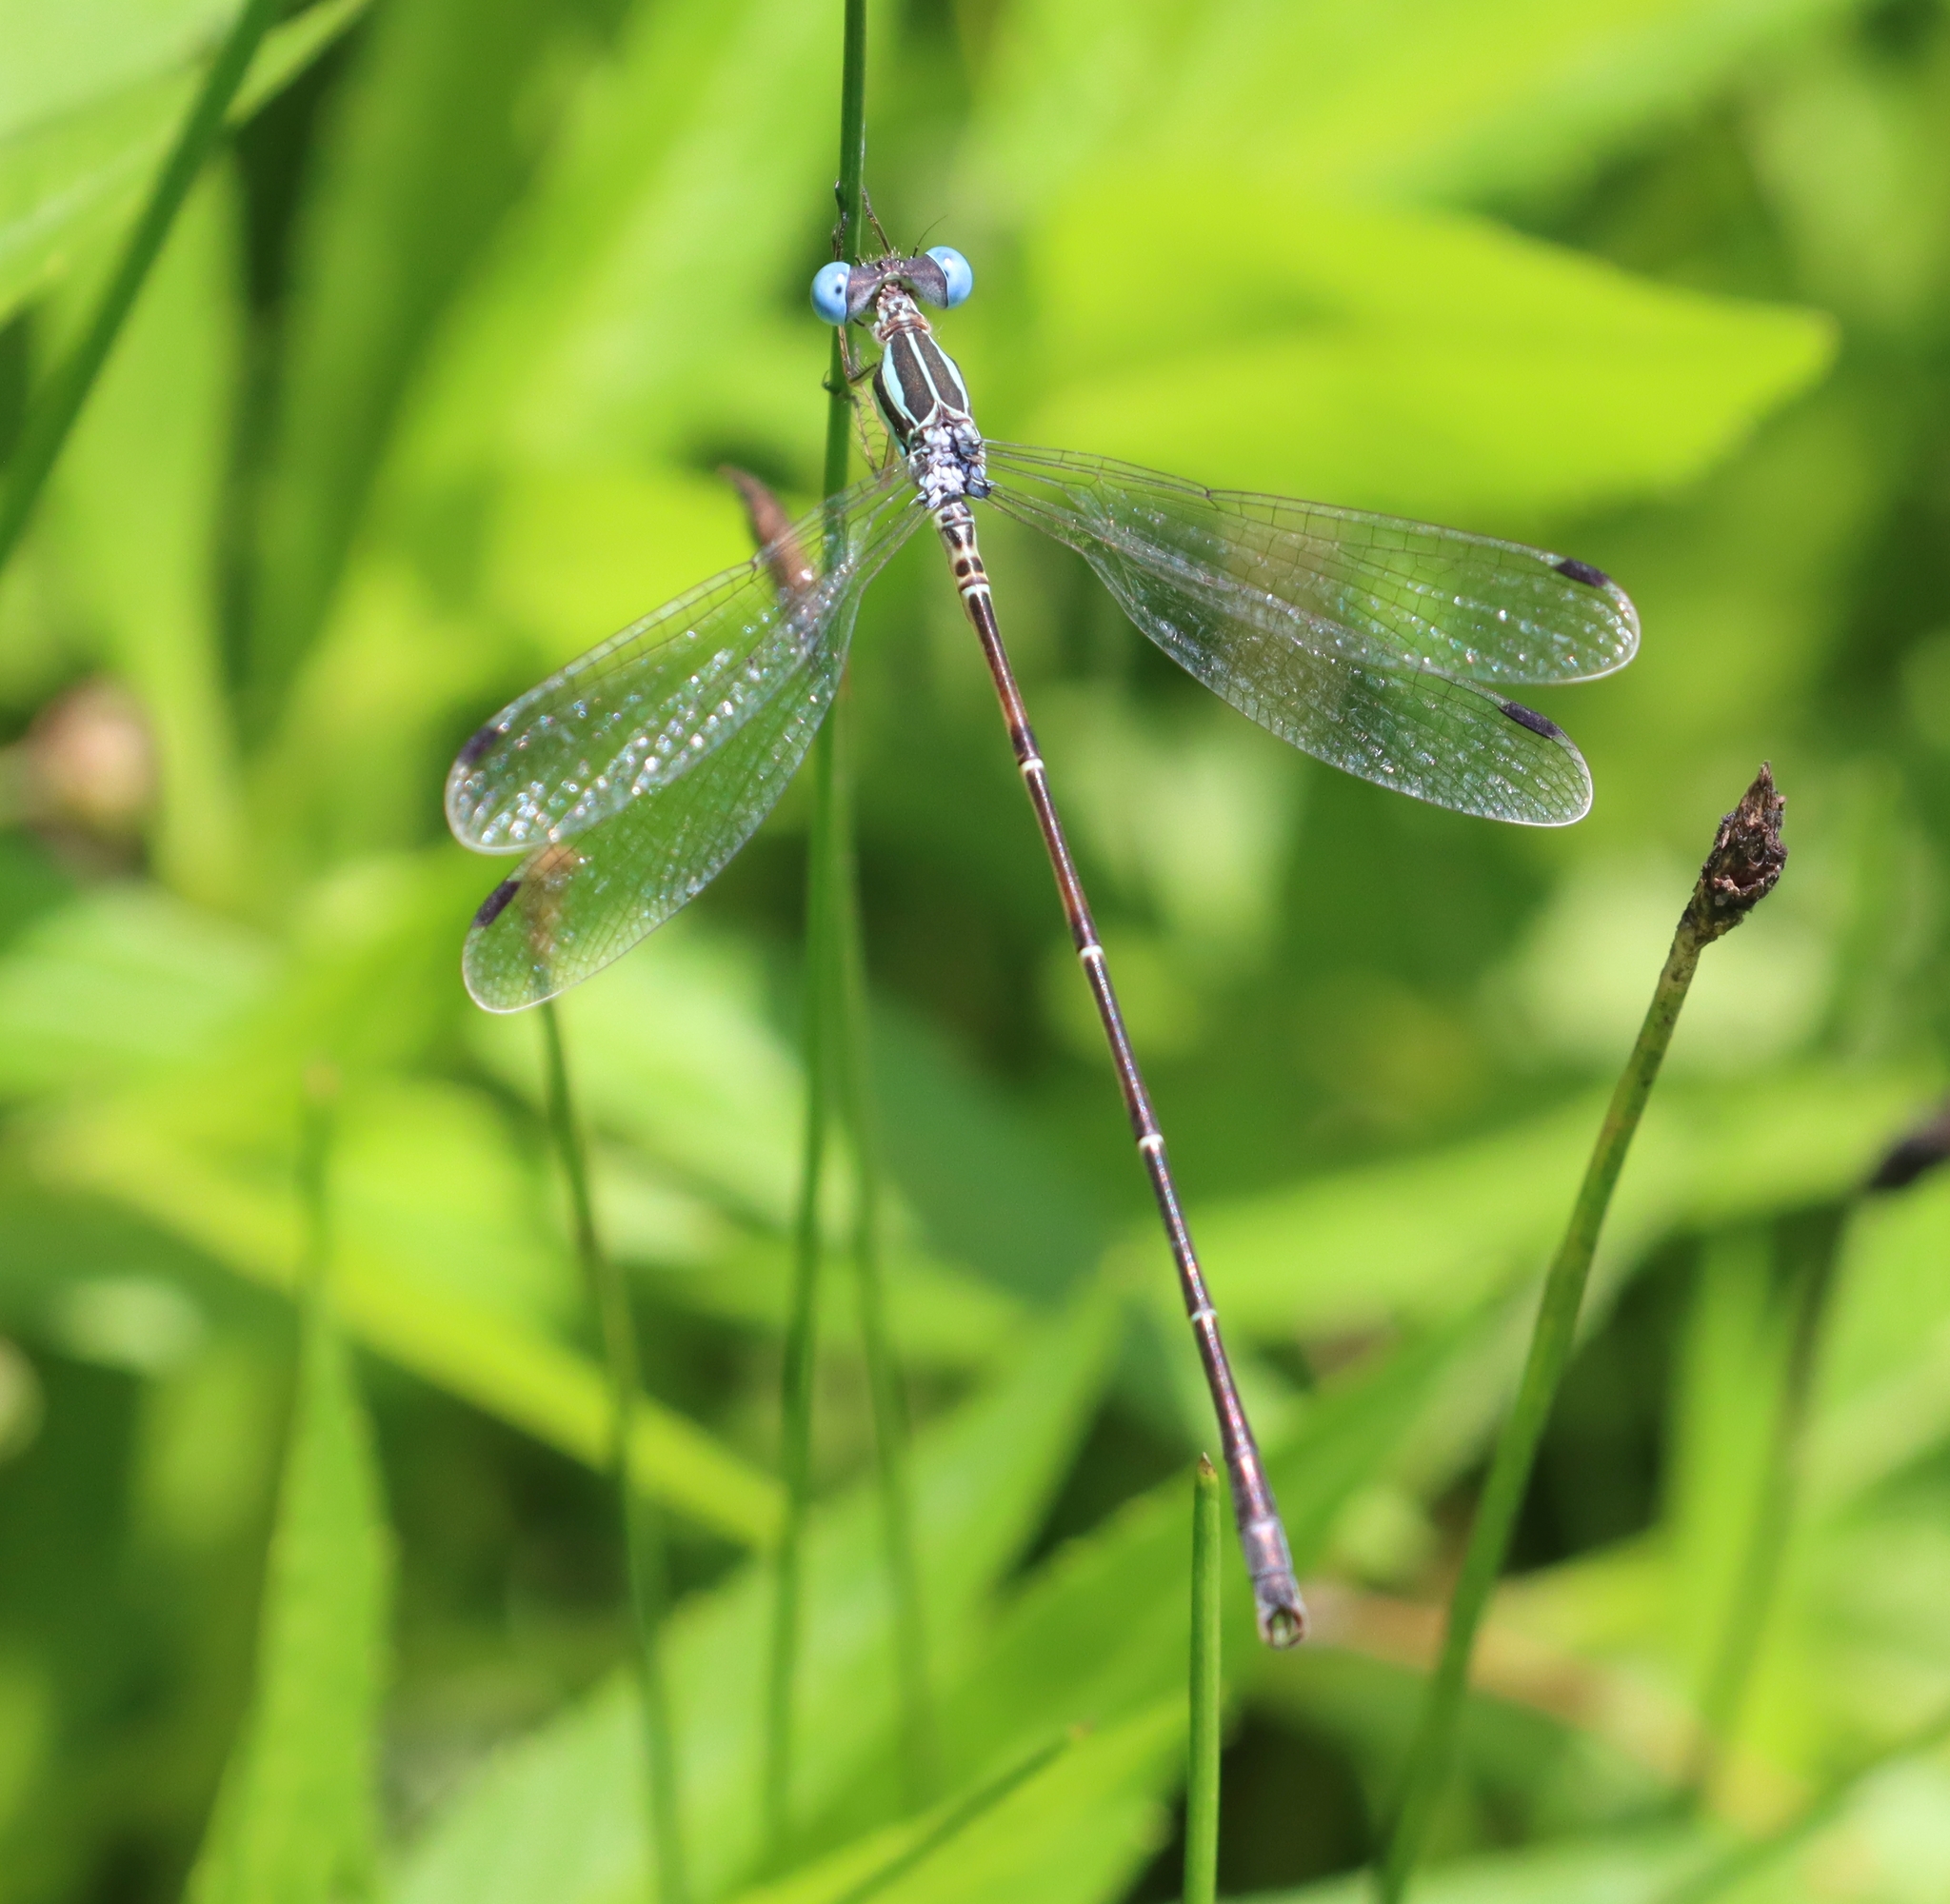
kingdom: Animalia
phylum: Arthropoda
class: Insecta
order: Odonata
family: Lestidae
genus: Lestes
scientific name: Lestes rectangularis
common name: Slender spreadwing
